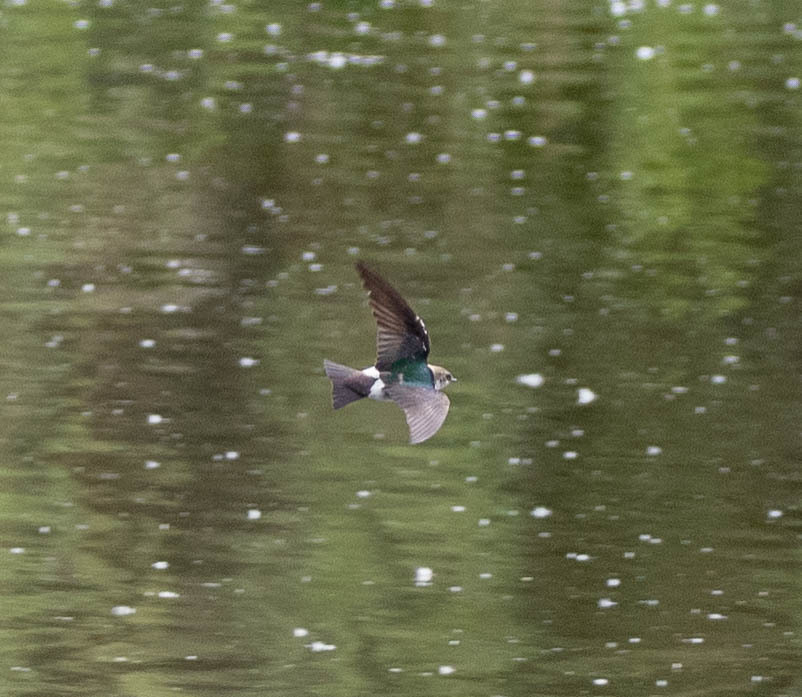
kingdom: Animalia
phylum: Chordata
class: Aves
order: Passeriformes
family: Hirundinidae
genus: Tachycineta
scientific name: Tachycineta thalassina
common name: Violet-green swallow
